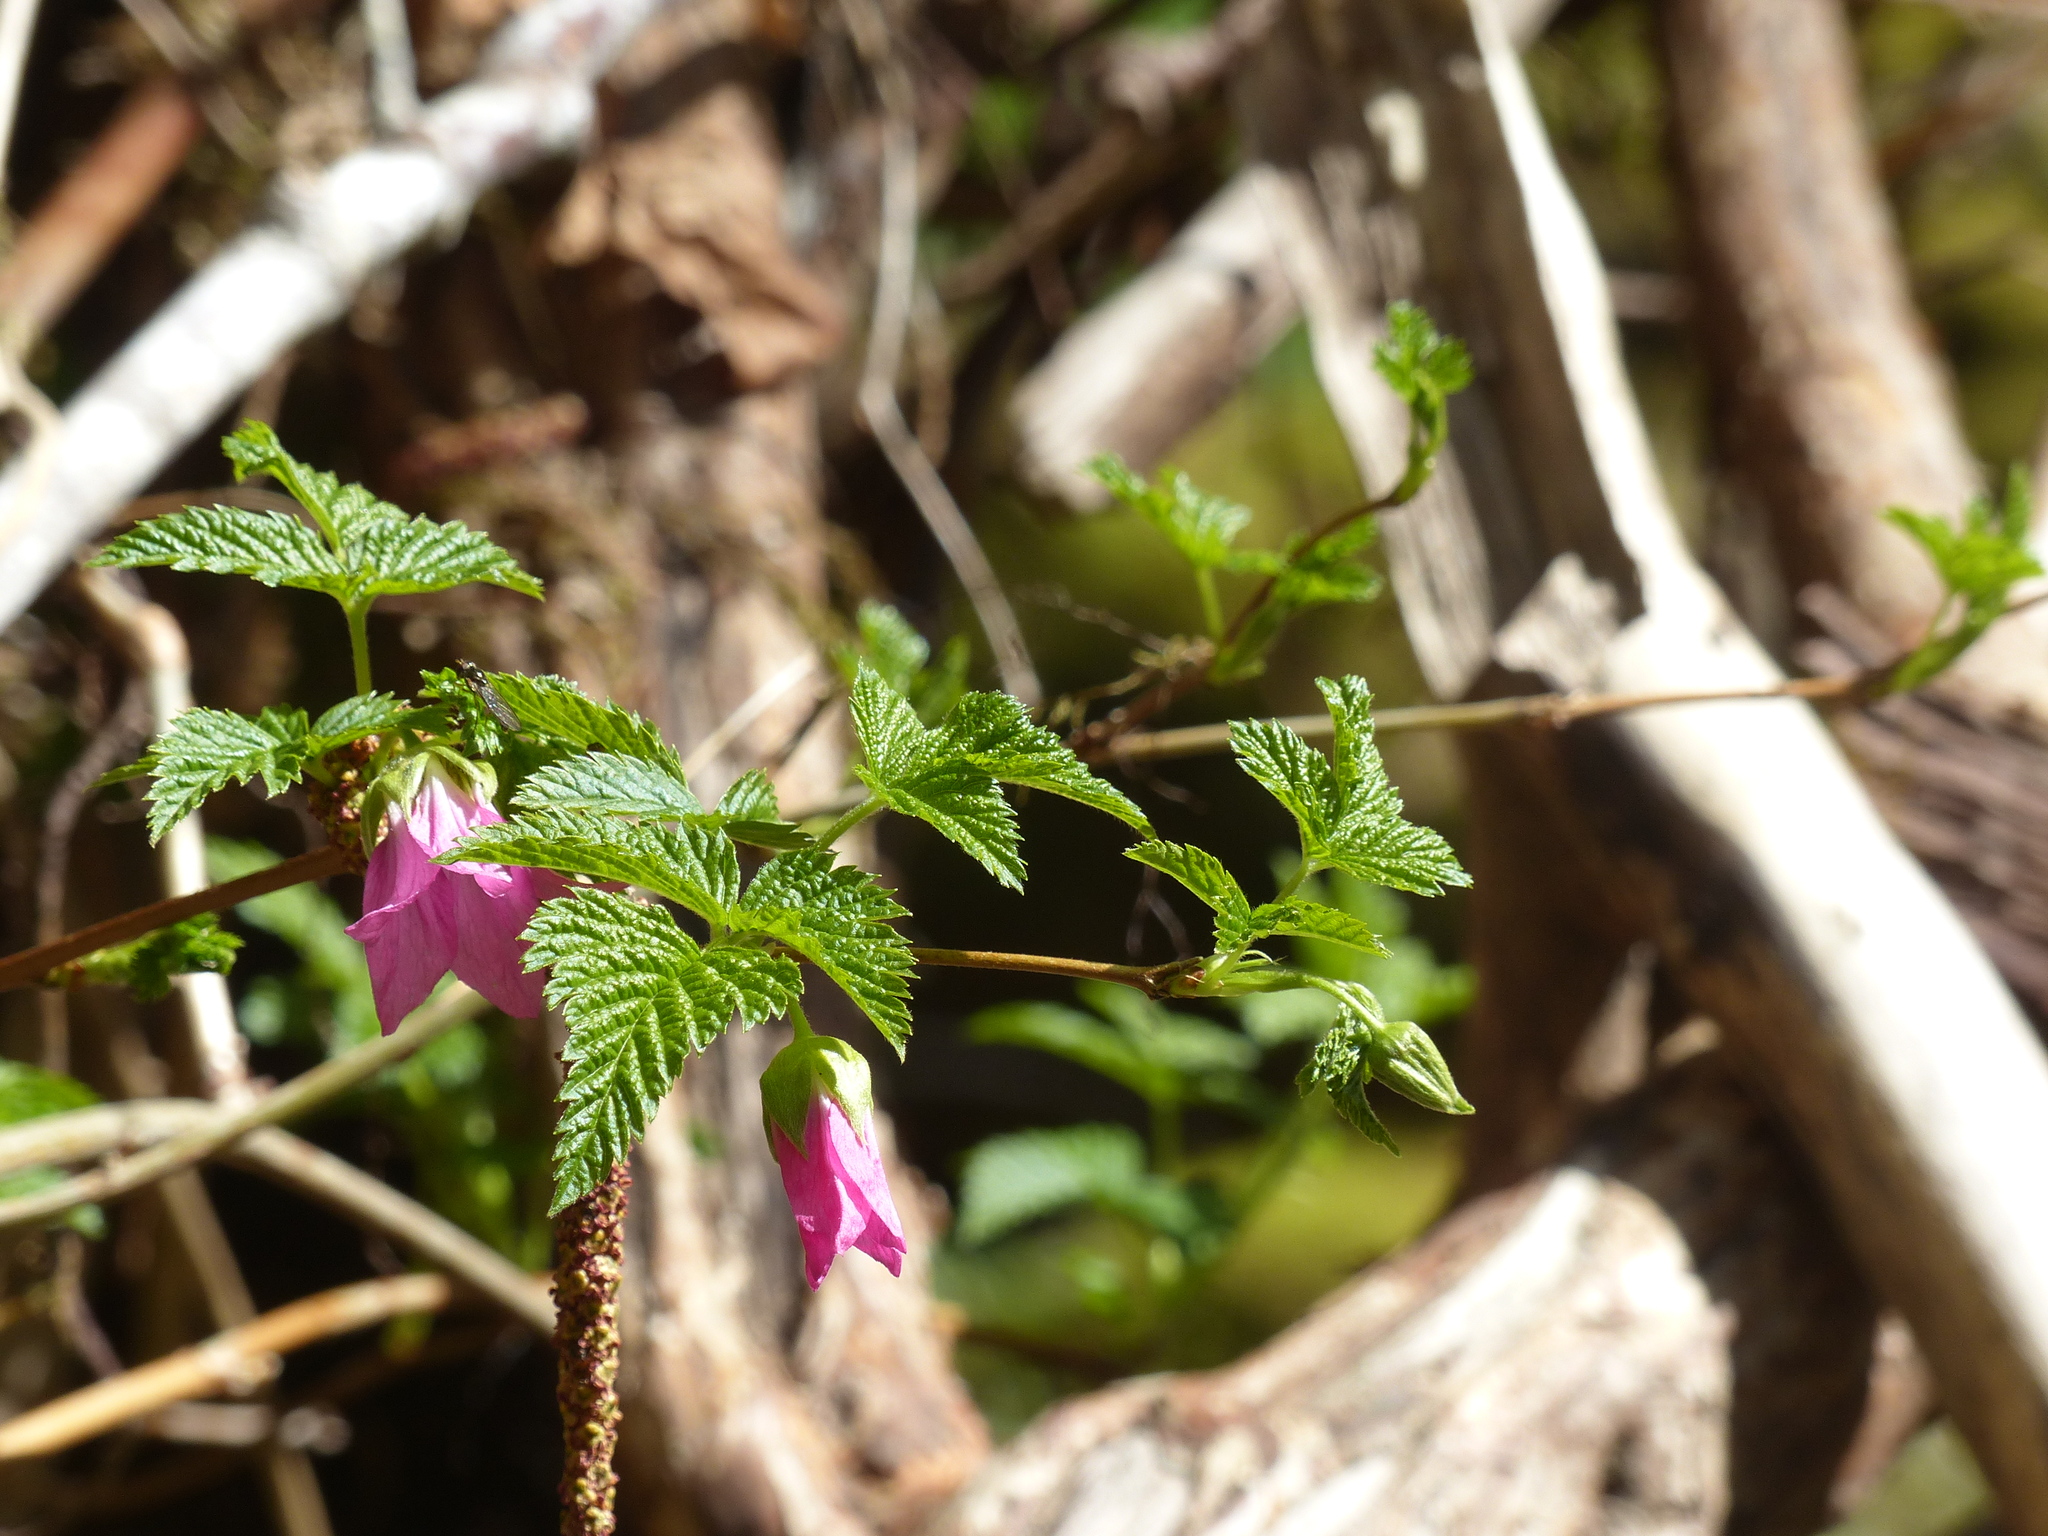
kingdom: Plantae
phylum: Tracheophyta
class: Magnoliopsida
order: Rosales
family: Rosaceae
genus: Rubus
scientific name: Rubus spectabilis
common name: Salmonberry
